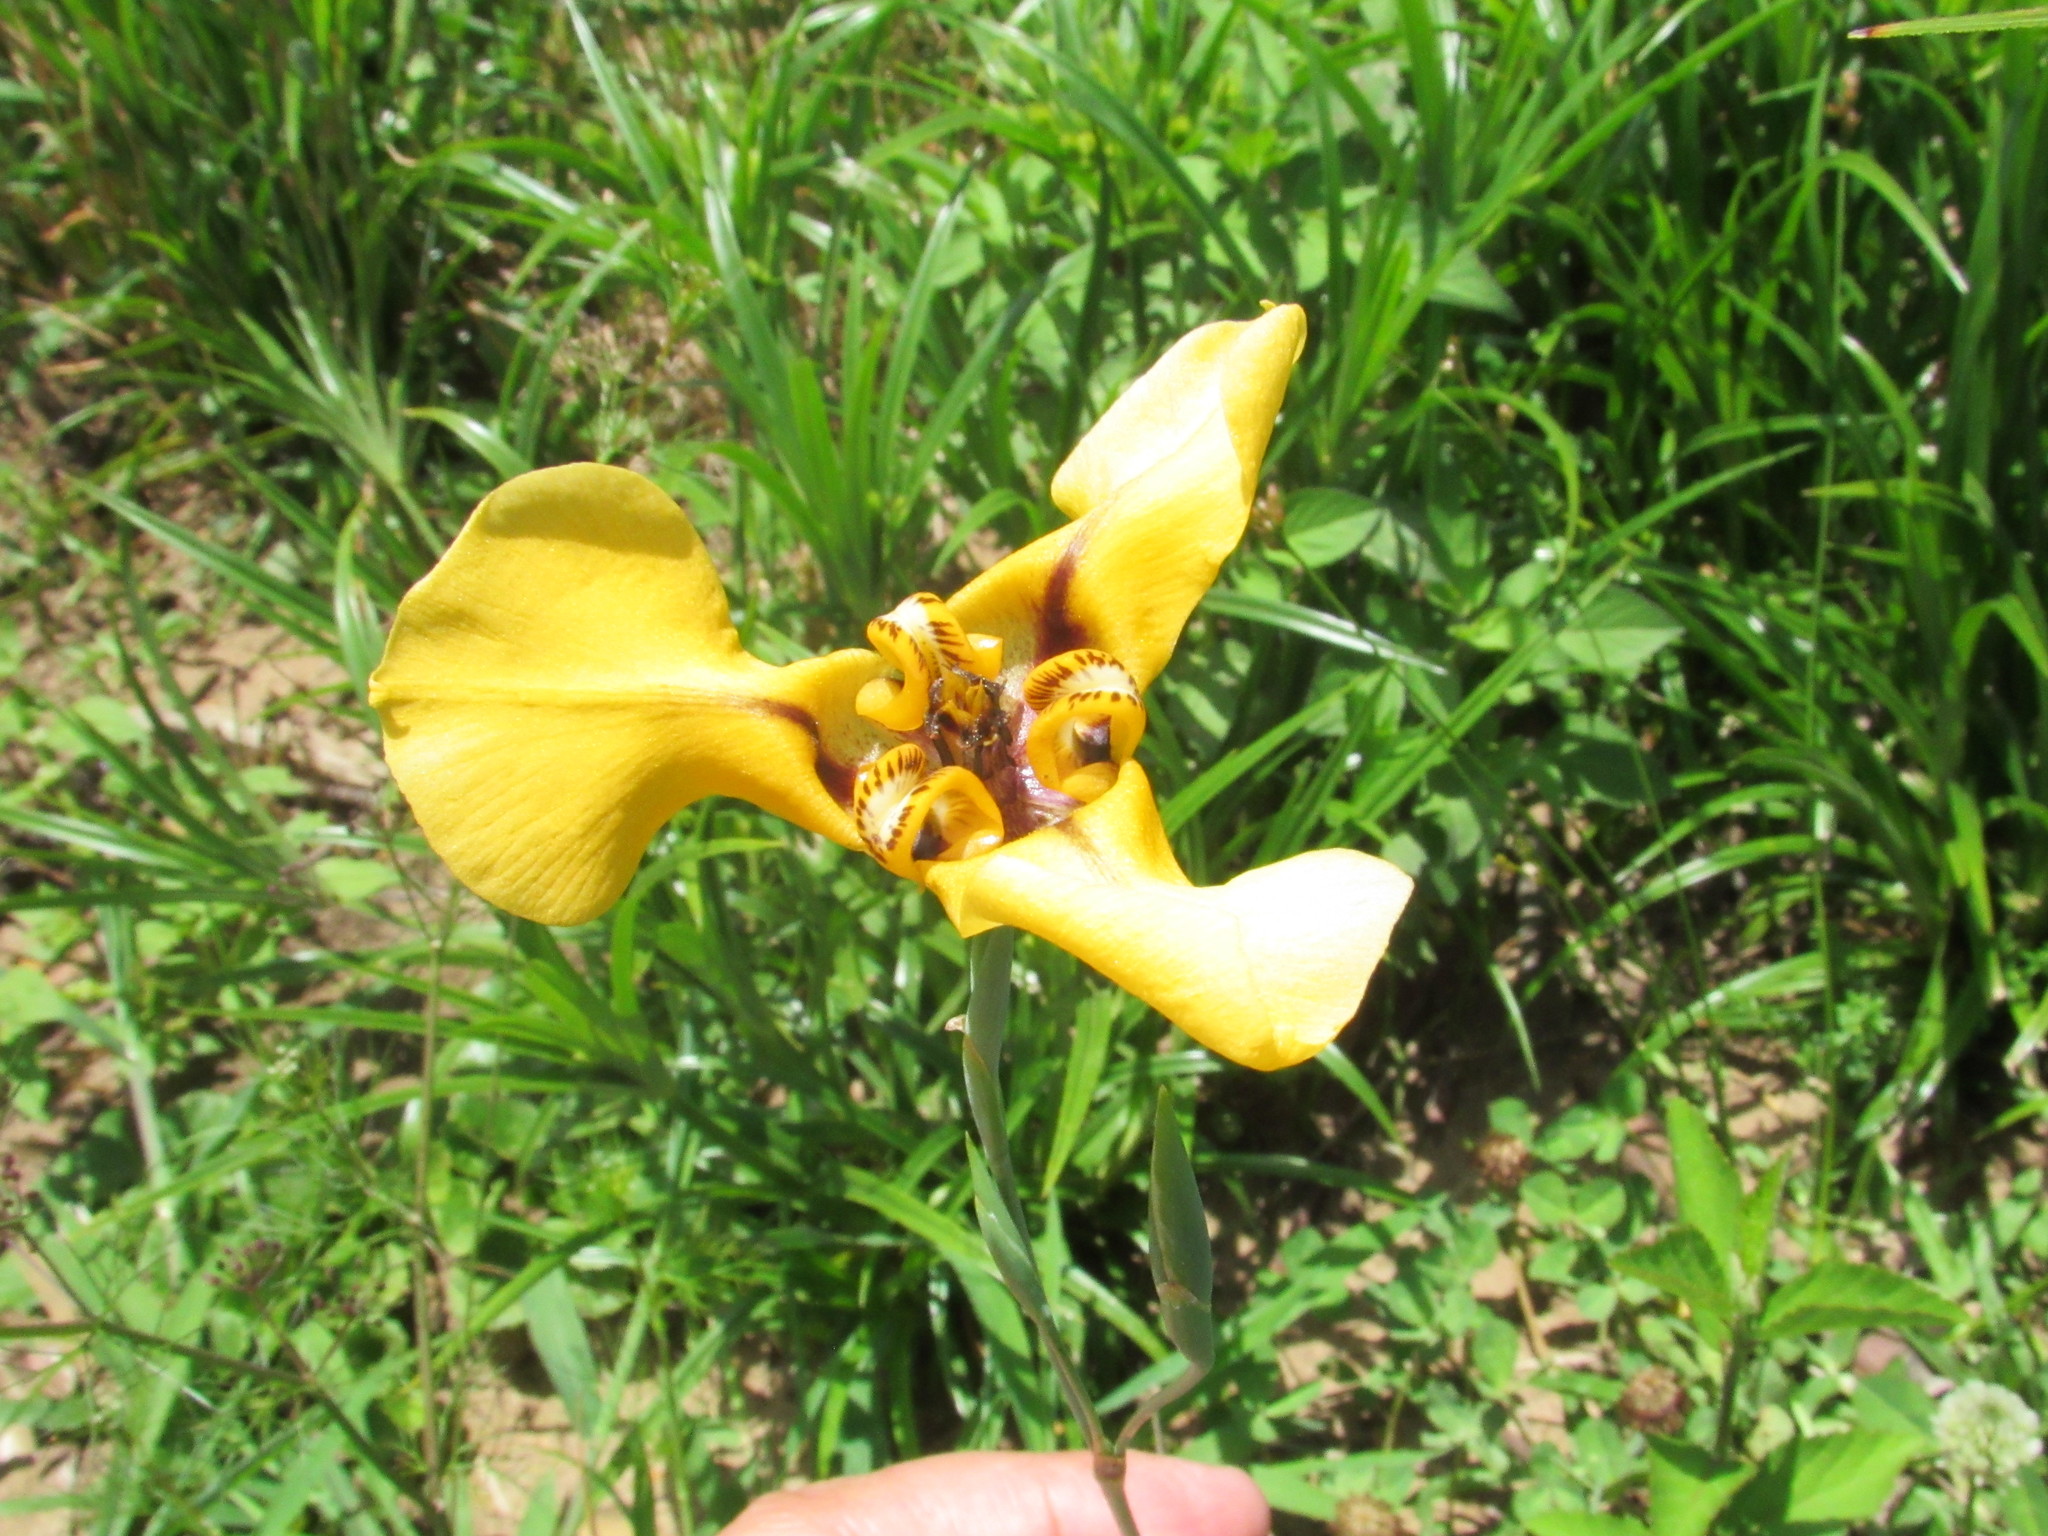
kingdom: Plantae
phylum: Tracheophyta
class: Liliopsida
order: Asparagales
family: Iridaceae
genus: Cypella
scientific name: Cypella herbertii
